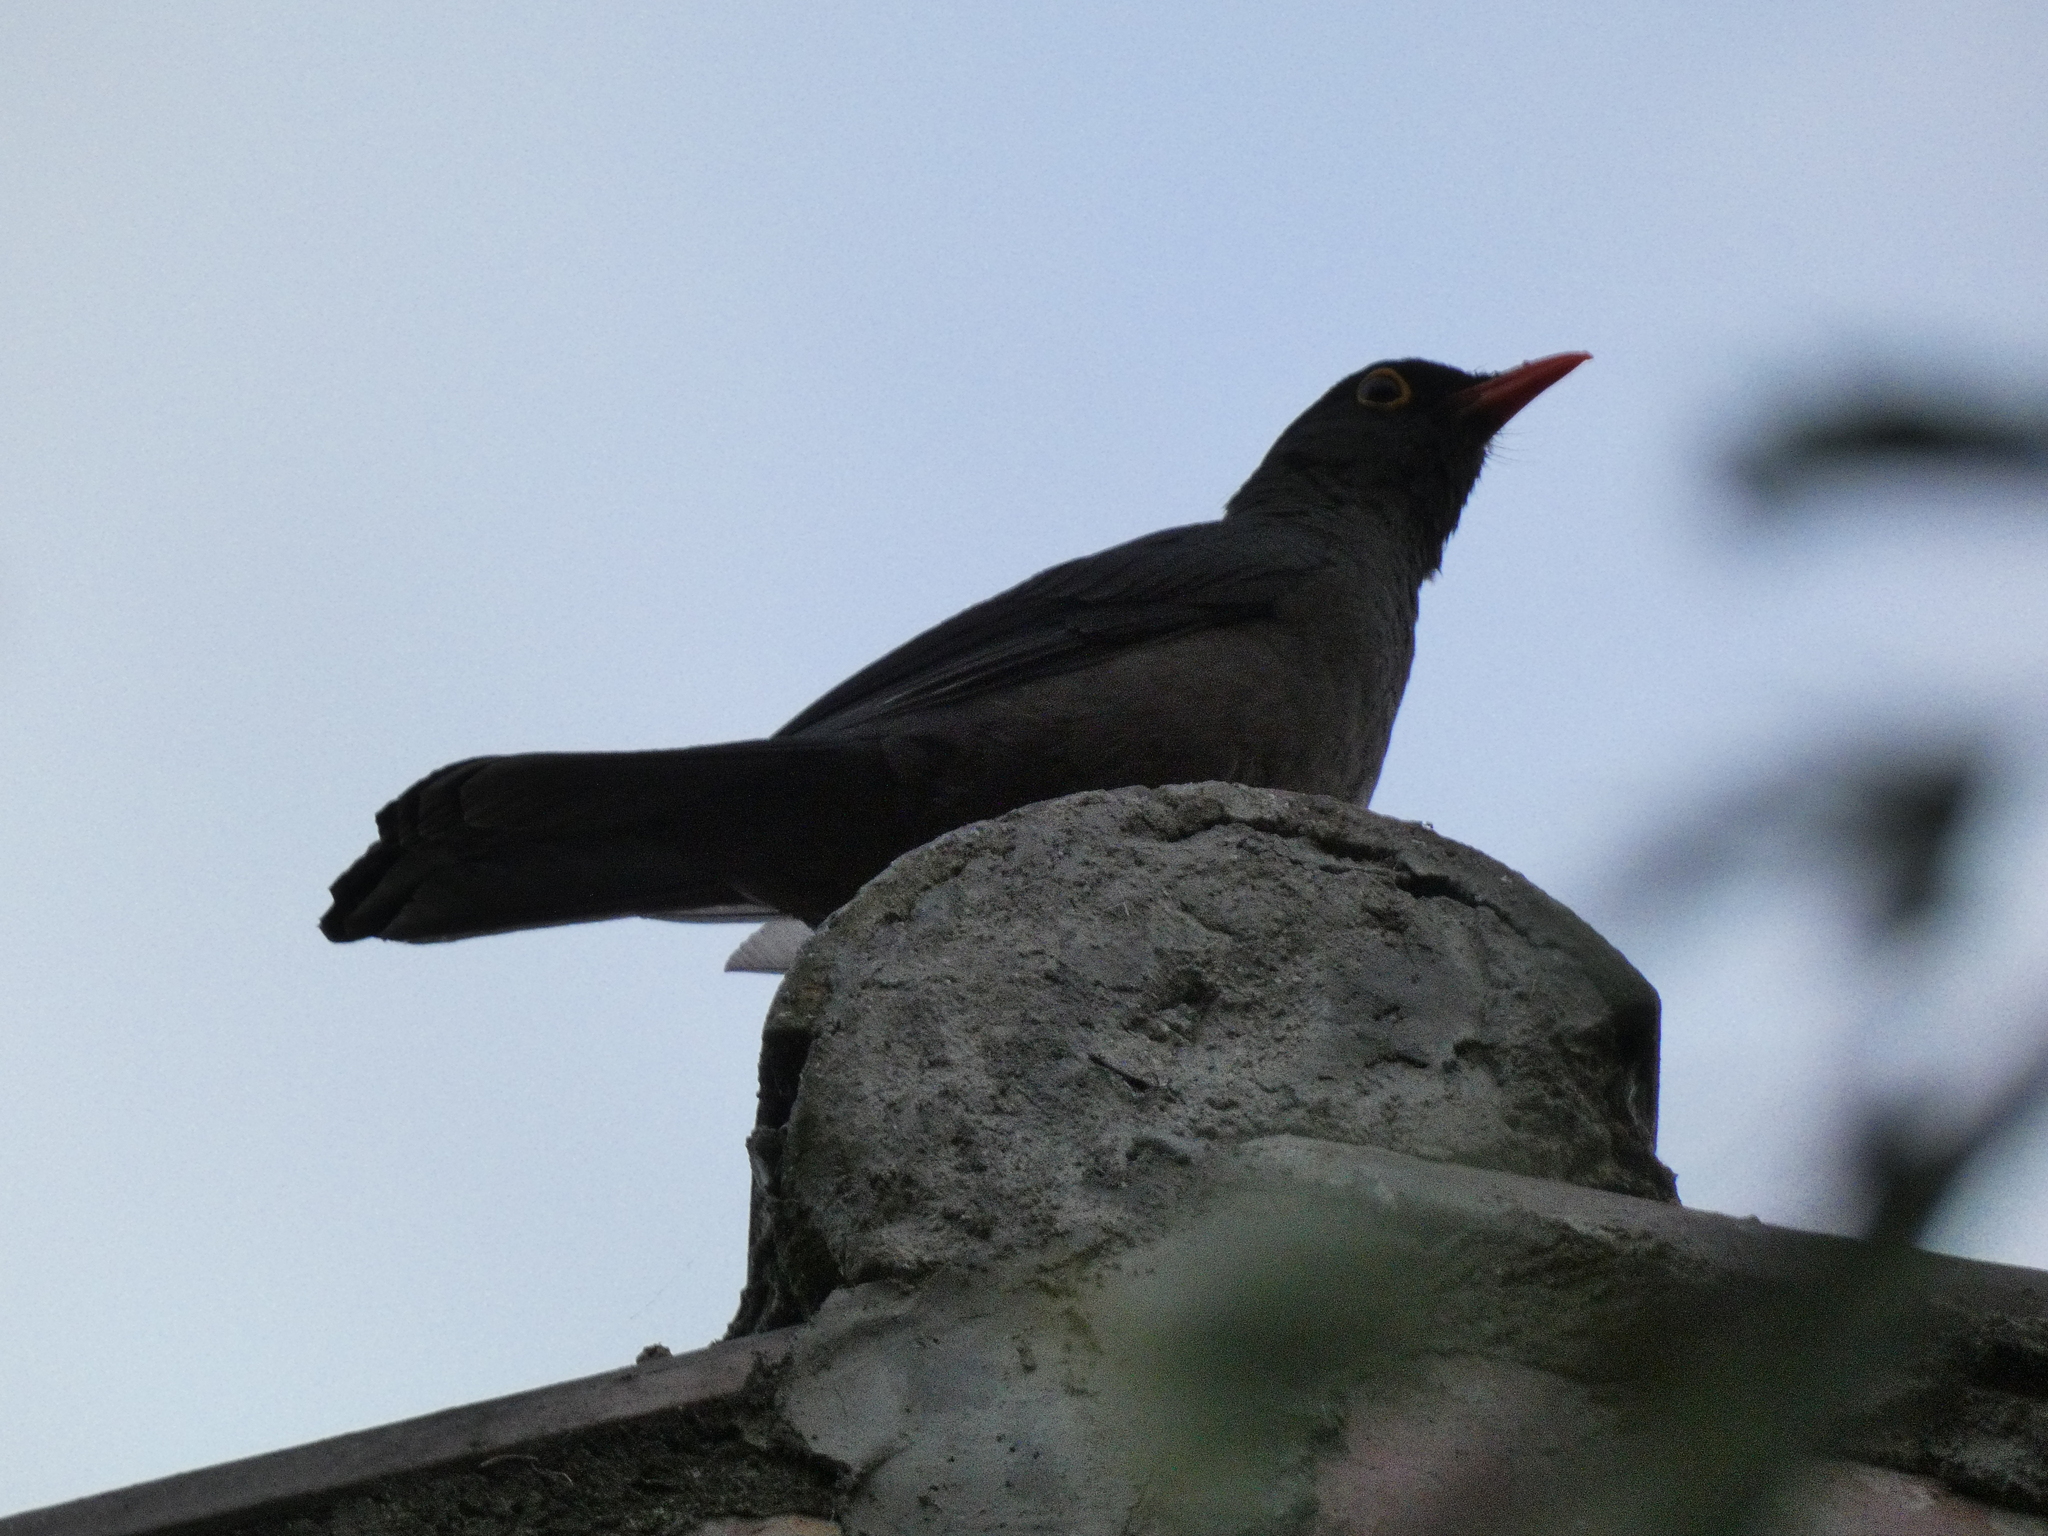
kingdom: Animalia
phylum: Chordata
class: Aves
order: Passeriformes
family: Turdidae
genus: Turdus
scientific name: Turdus fuscater
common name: Great thrush
